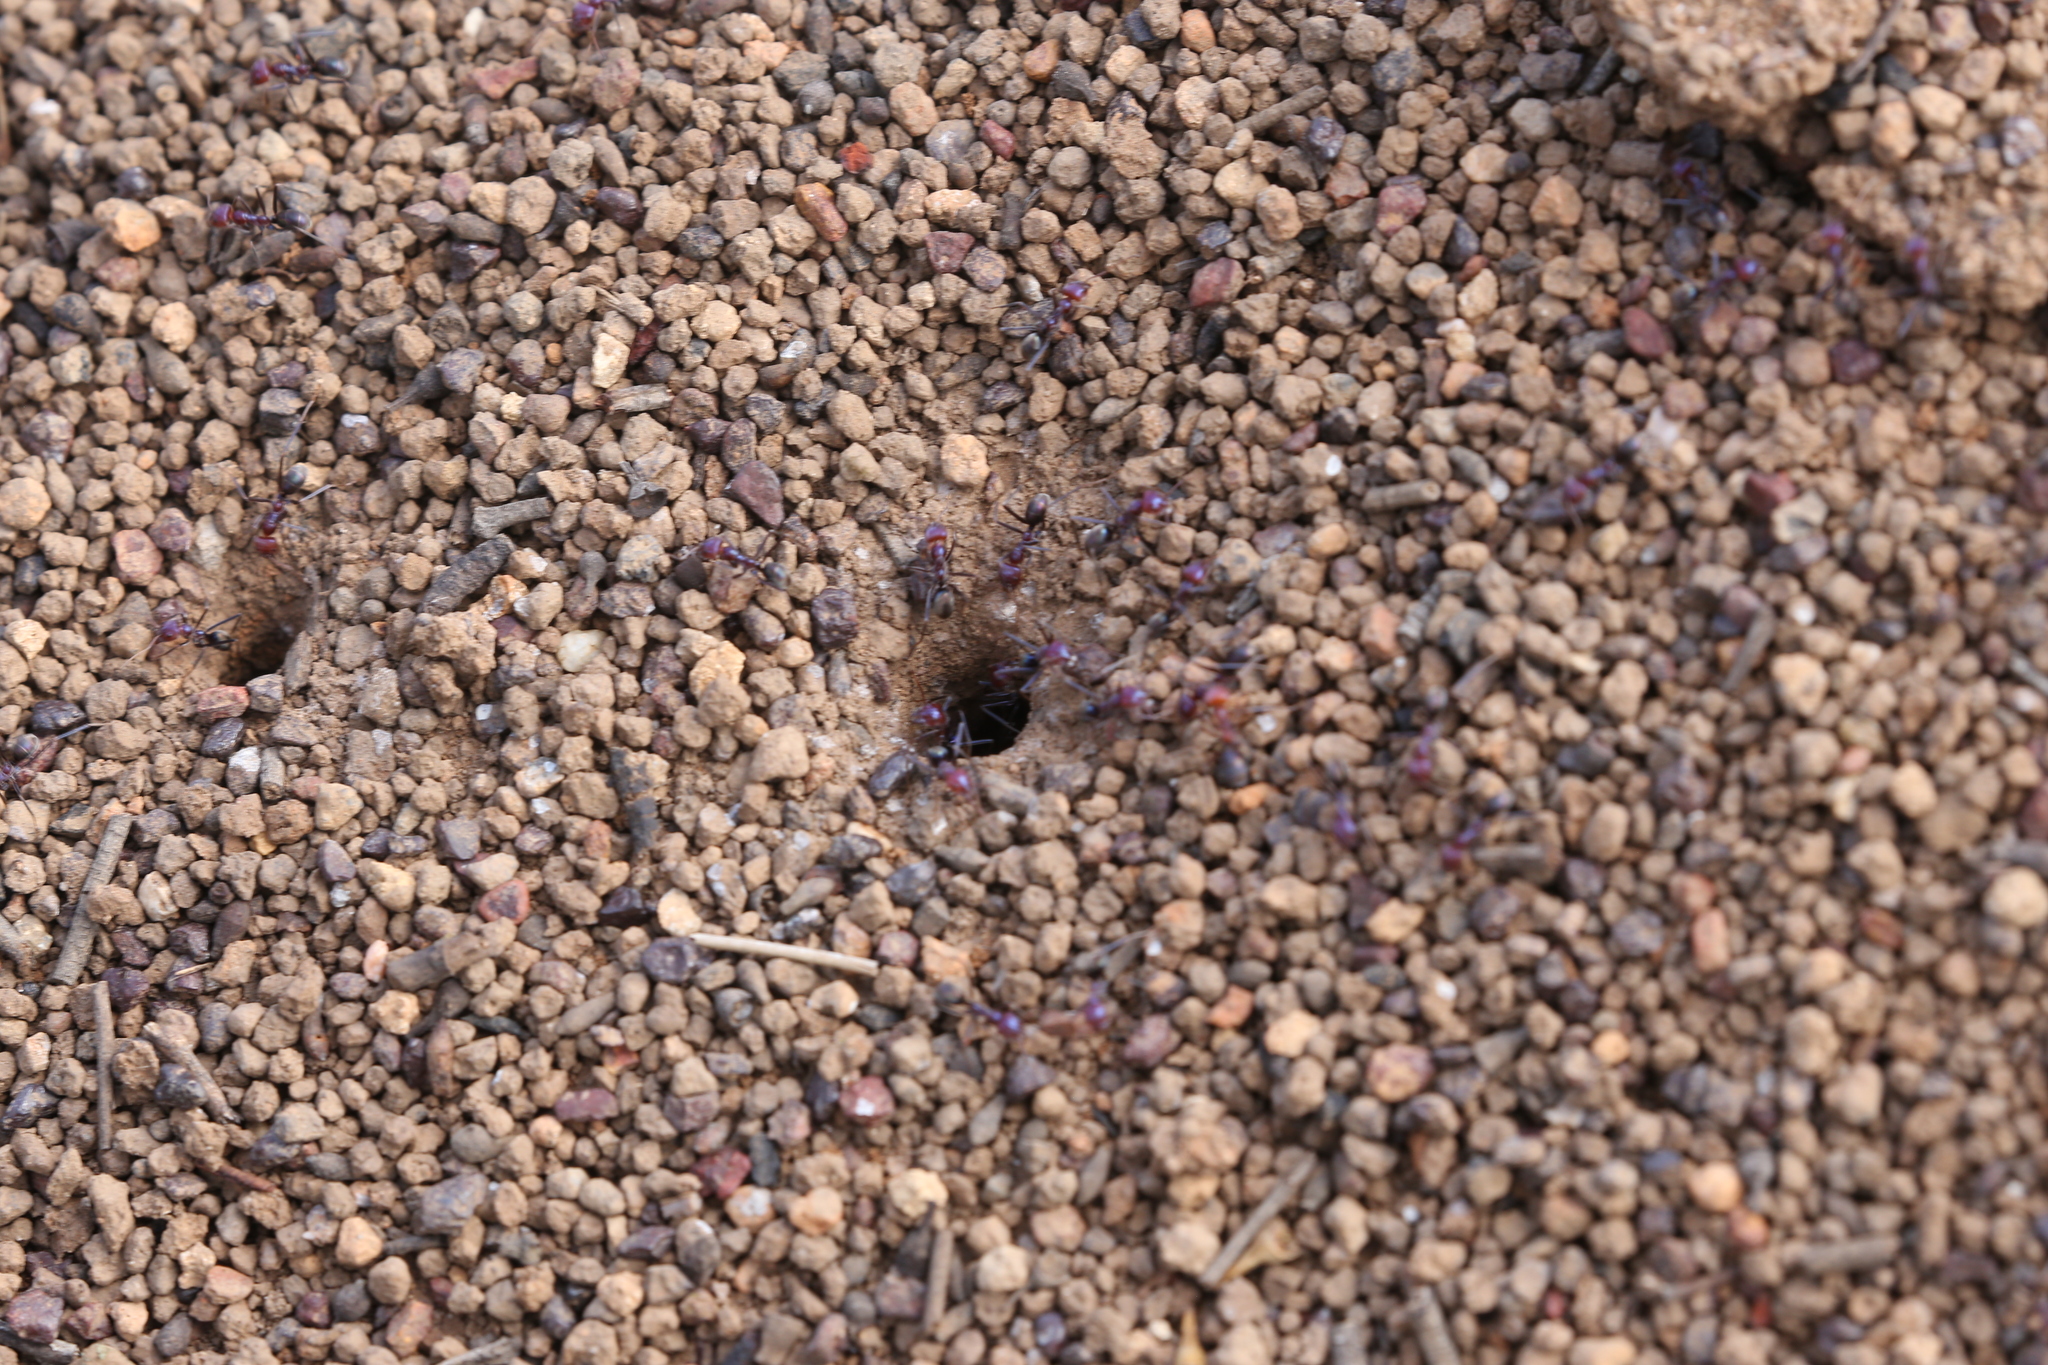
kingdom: Animalia
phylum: Arthropoda
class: Insecta
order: Hymenoptera
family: Formicidae
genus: Iridomyrmex
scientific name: Iridomyrmex purpureus
